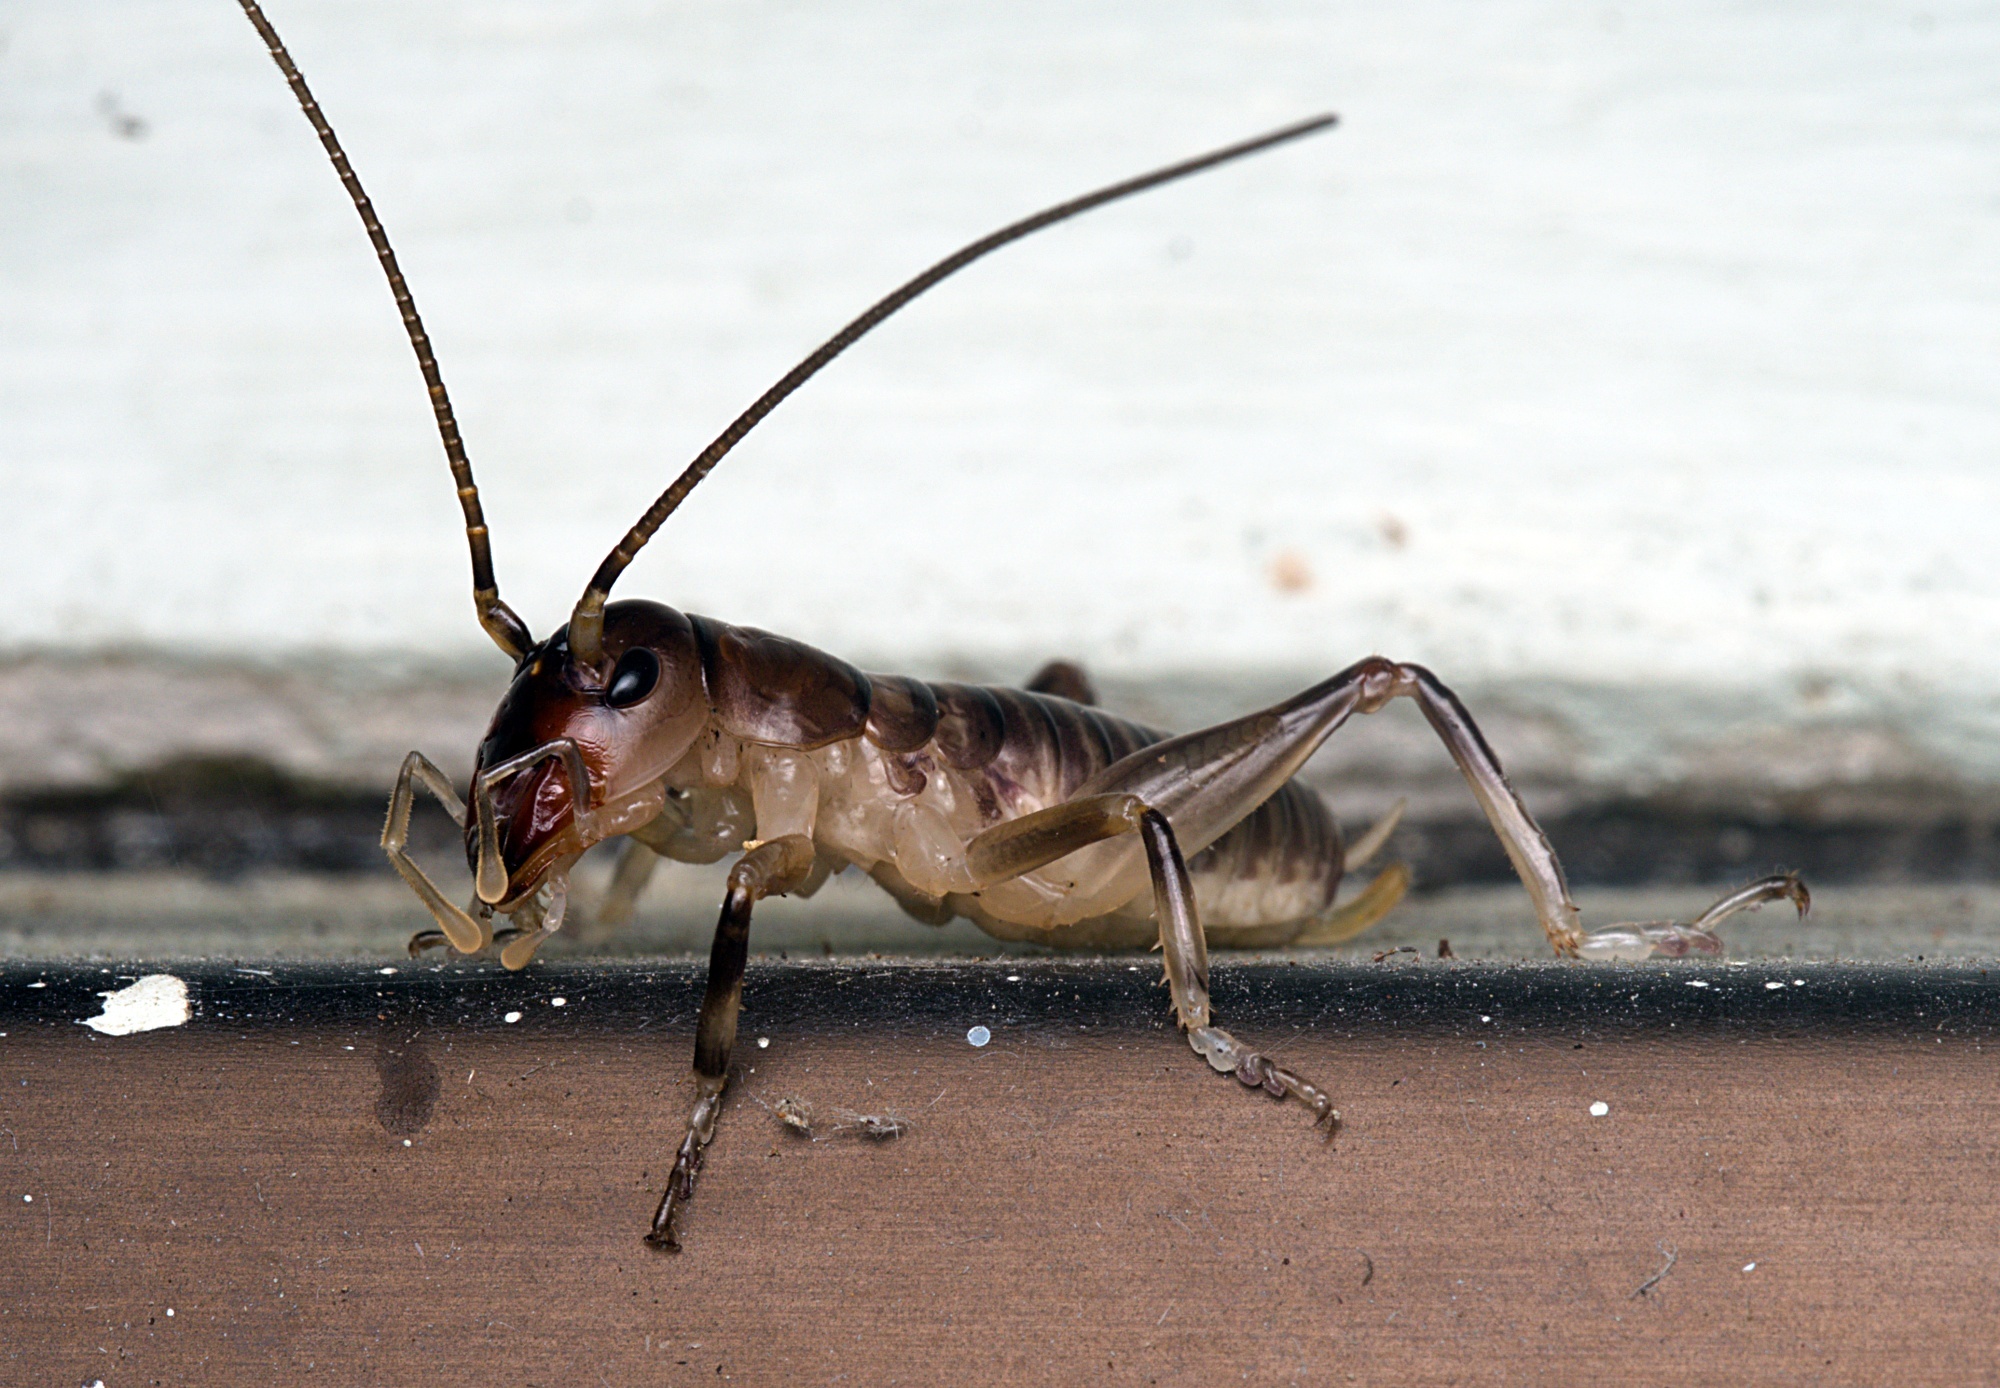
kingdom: Animalia
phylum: Arthropoda
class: Insecta
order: Orthoptera
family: Anostostomatidae
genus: Anisoura
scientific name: Anisoura nicobarica
